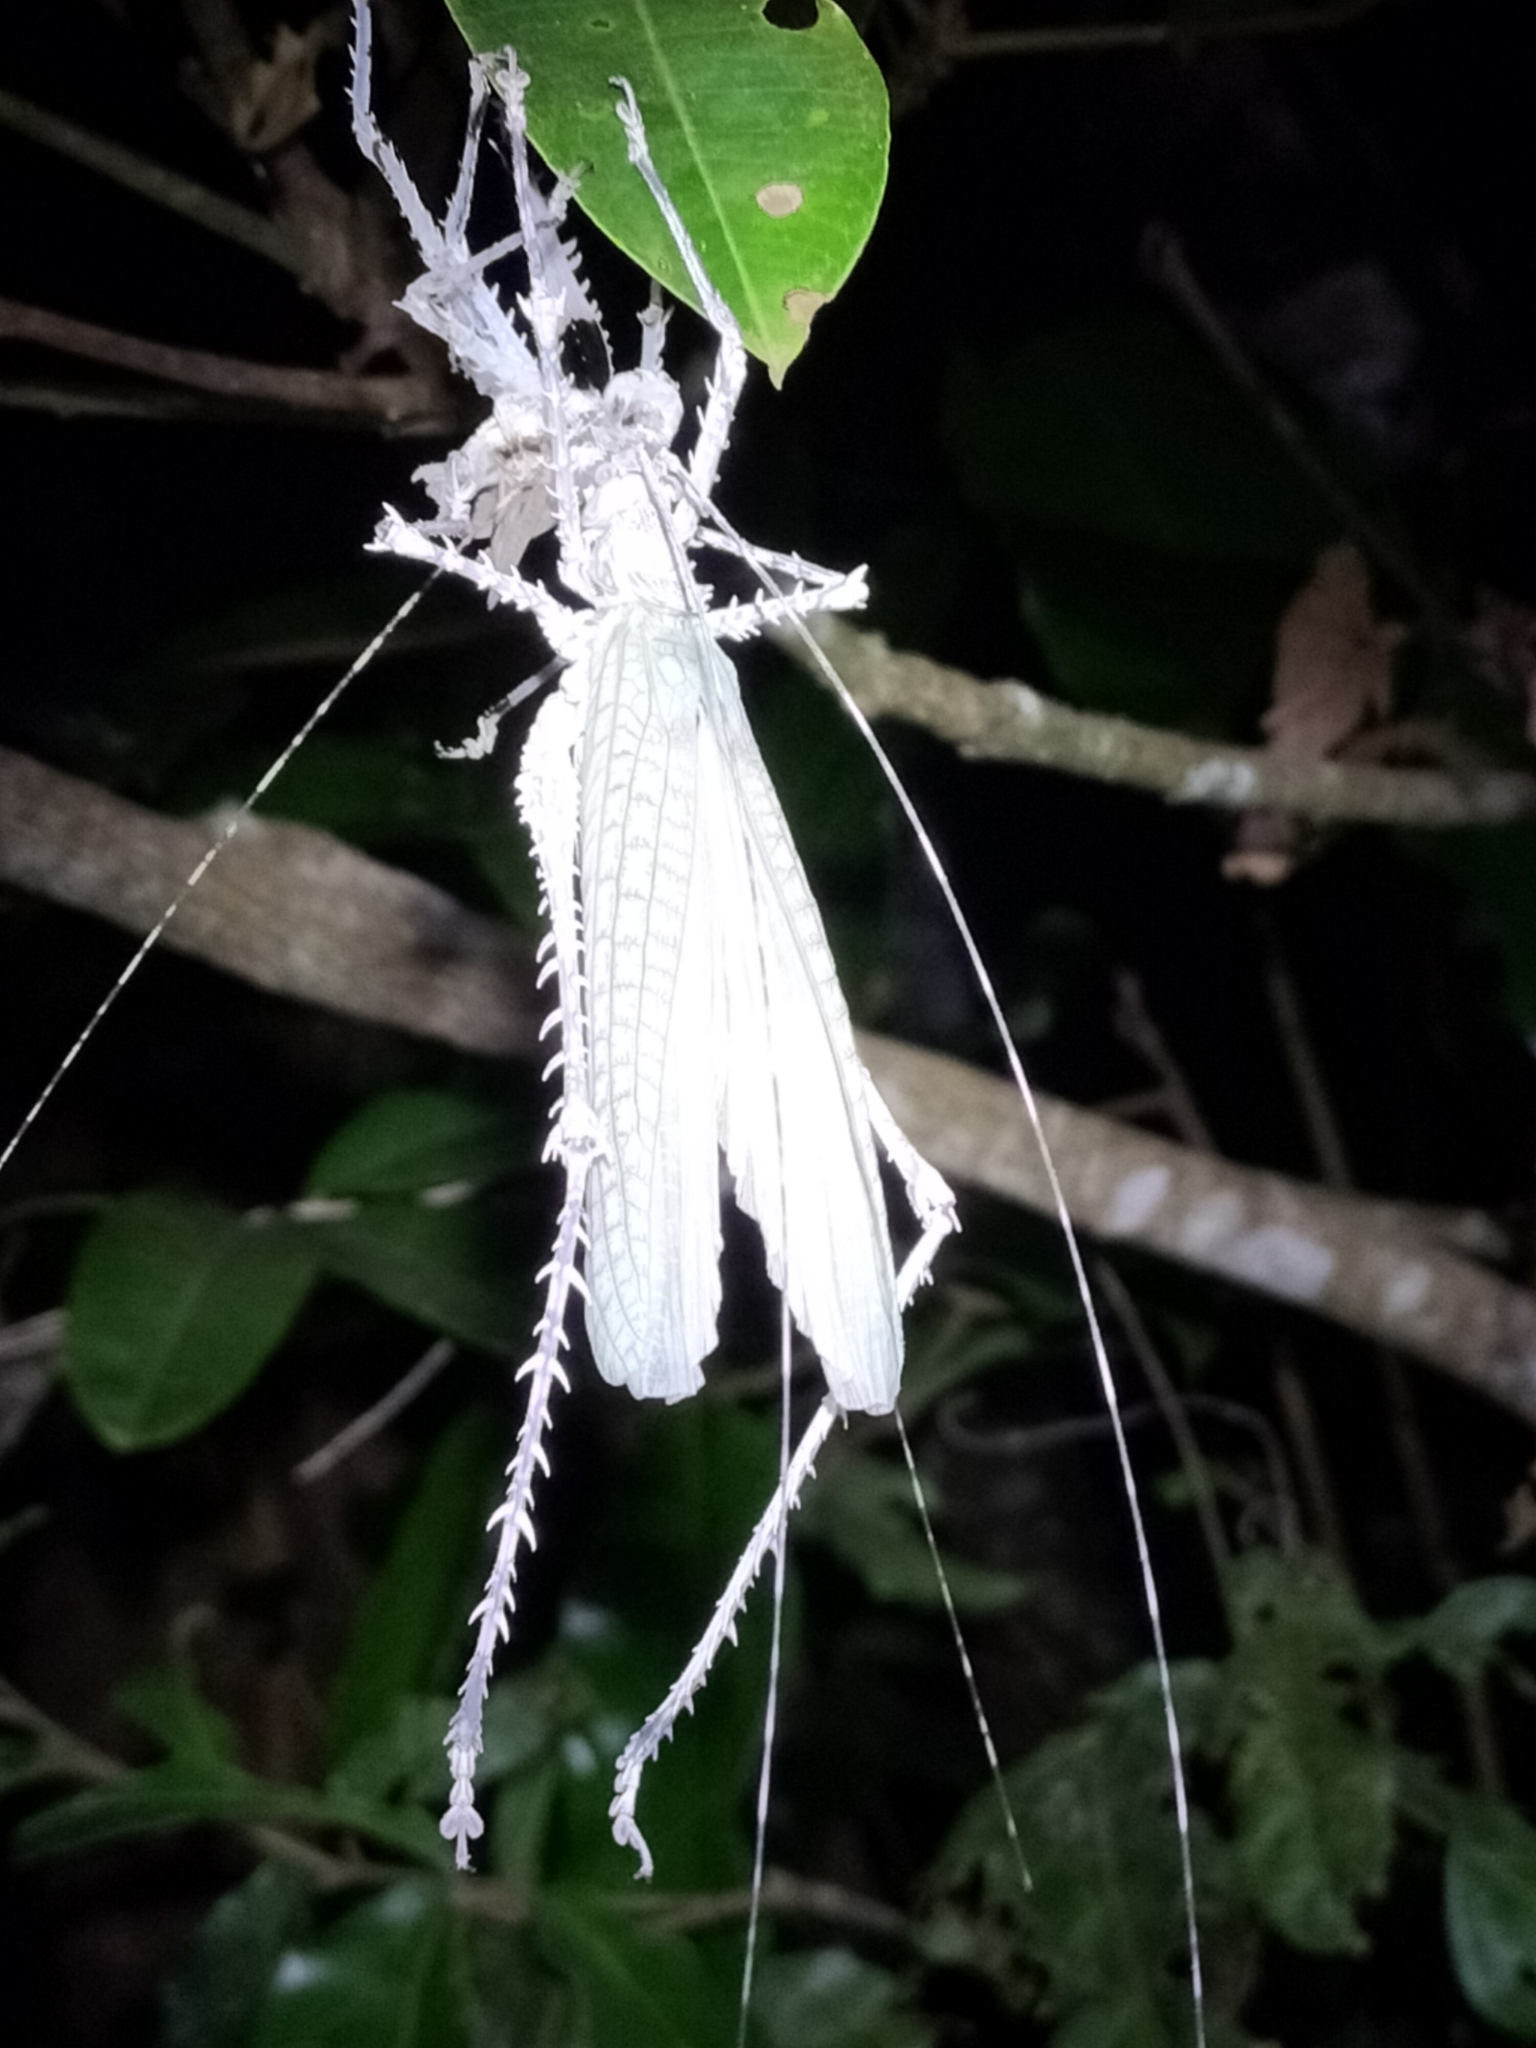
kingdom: Animalia
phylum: Arthropoda
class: Insecta
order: Orthoptera
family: Tettigoniidae
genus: Phricta
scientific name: Phricta spinosa
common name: Giant spiny forest katydid
